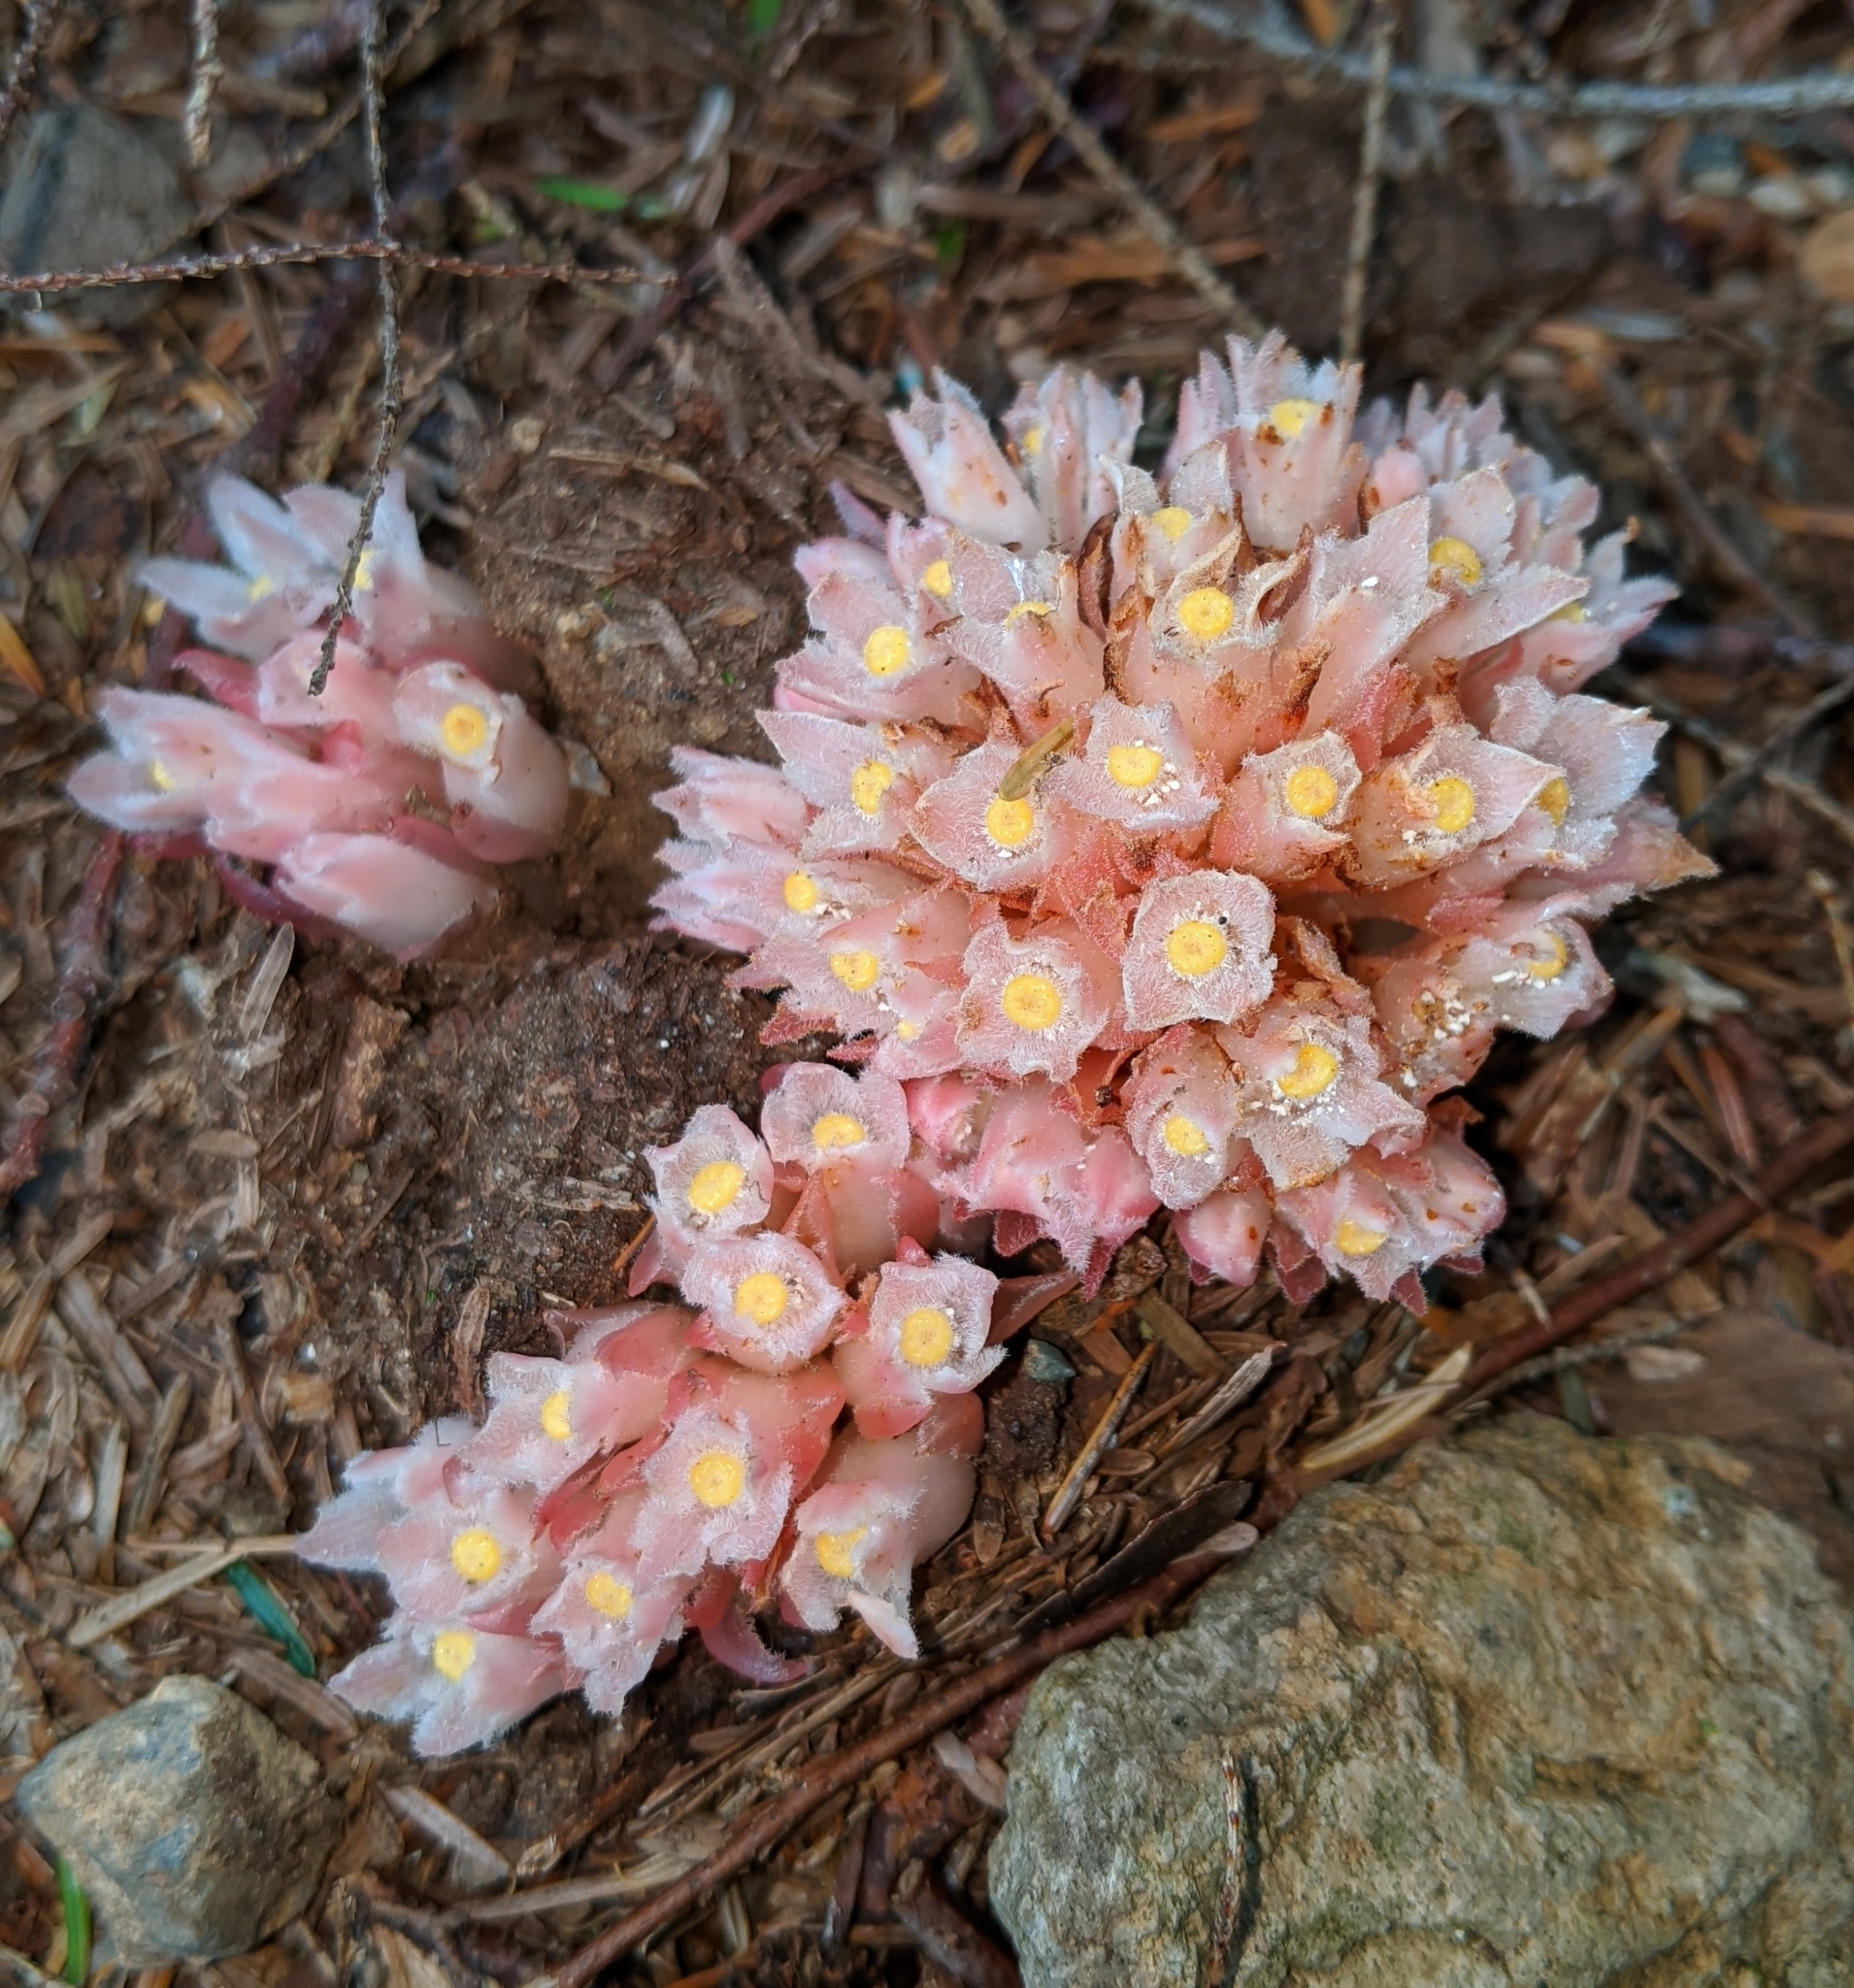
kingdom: Plantae
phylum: Tracheophyta
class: Magnoliopsida
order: Ericales
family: Ericaceae
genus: Hemitomes
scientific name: Hemitomes congestum
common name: Cone plant
